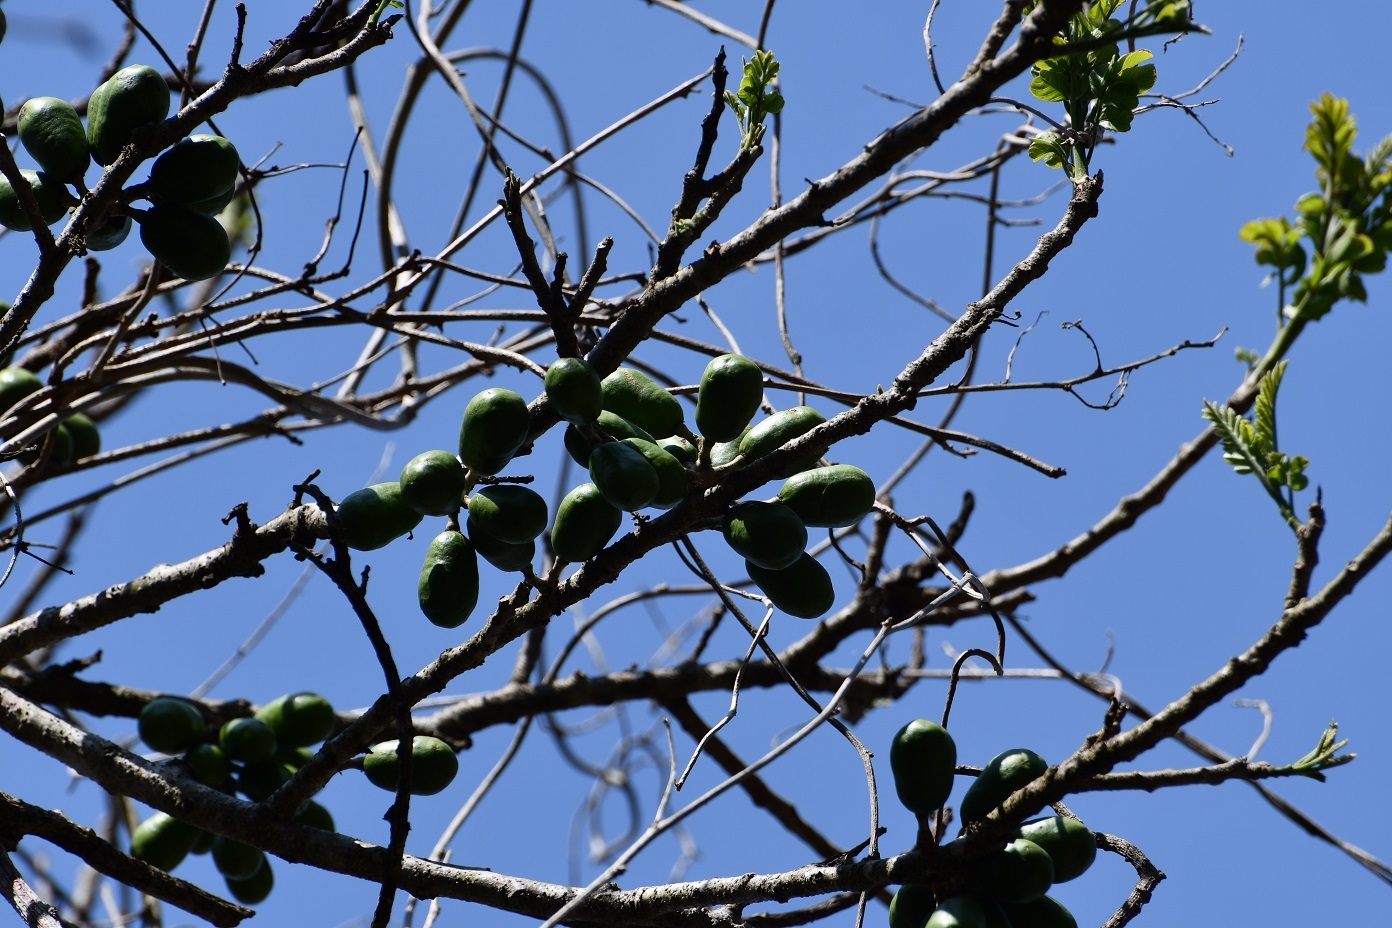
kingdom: Plantae
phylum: Tracheophyta
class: Magnoliopsida
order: Sapindales
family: Anacardiaceae
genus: Spondias
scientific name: Spondias purpurea
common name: Purple mombin
